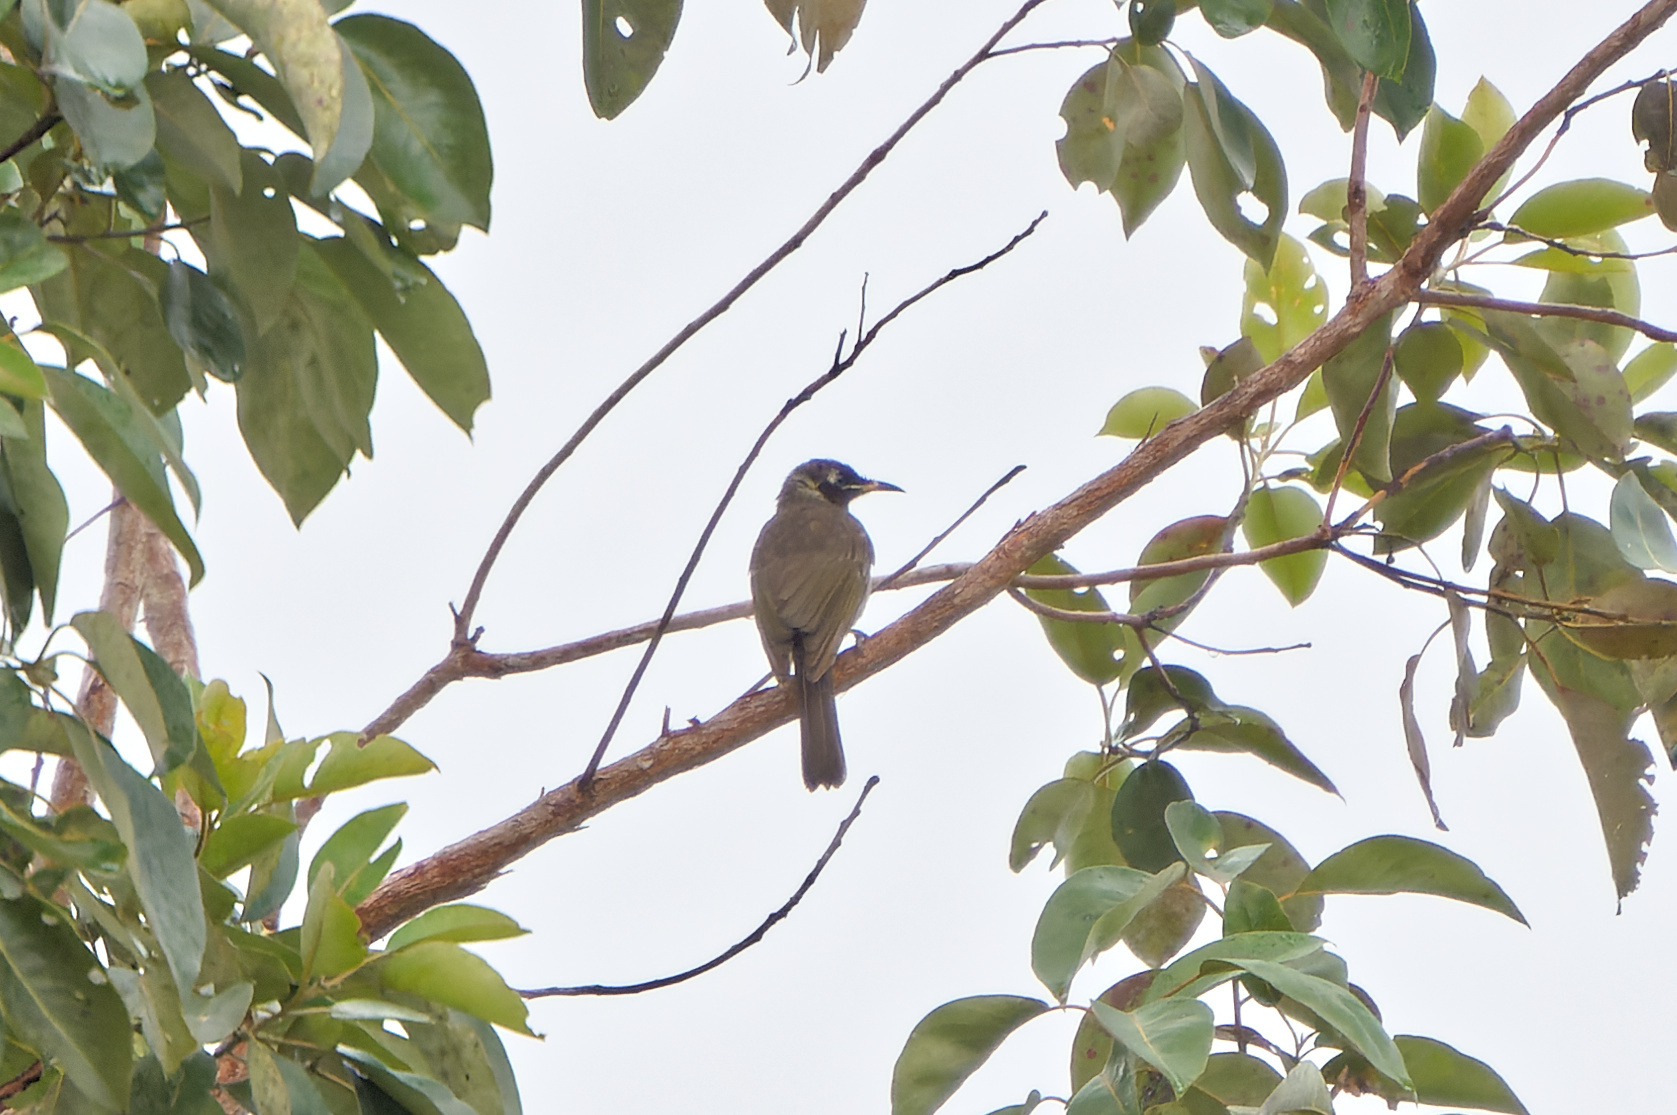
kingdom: Animalia
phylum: Chordata
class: Aves
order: Passeriformes
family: Meliphagidae
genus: Bolemoreus
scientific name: Bolemoreus frenatus
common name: Bridled honeyeater
